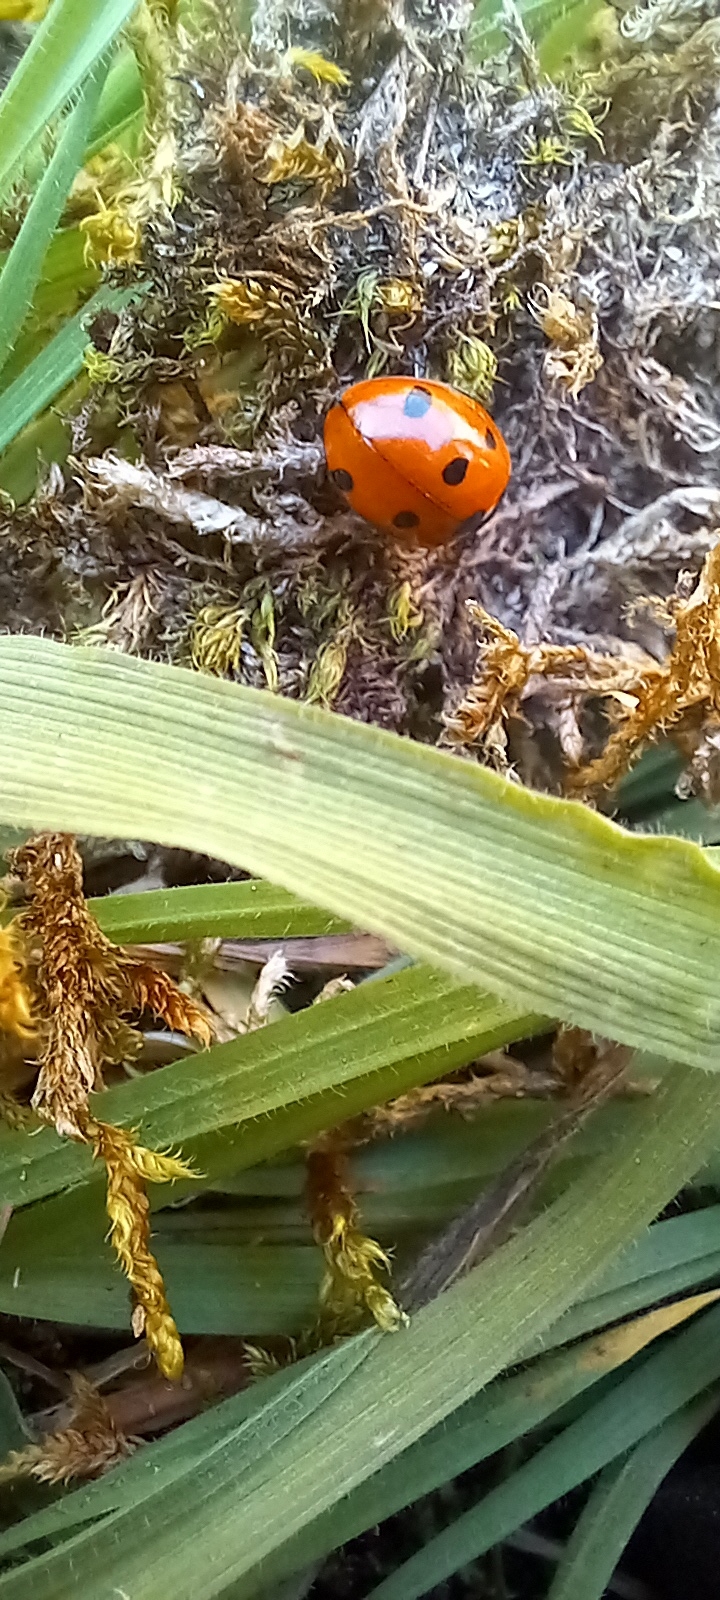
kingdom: Animalia
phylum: Arthropoda
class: Insecta
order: Coleoptera
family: Coccinellidae
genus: Coccinella
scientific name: Coccinella septempunctata
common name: Sevenspotted lady beetle
